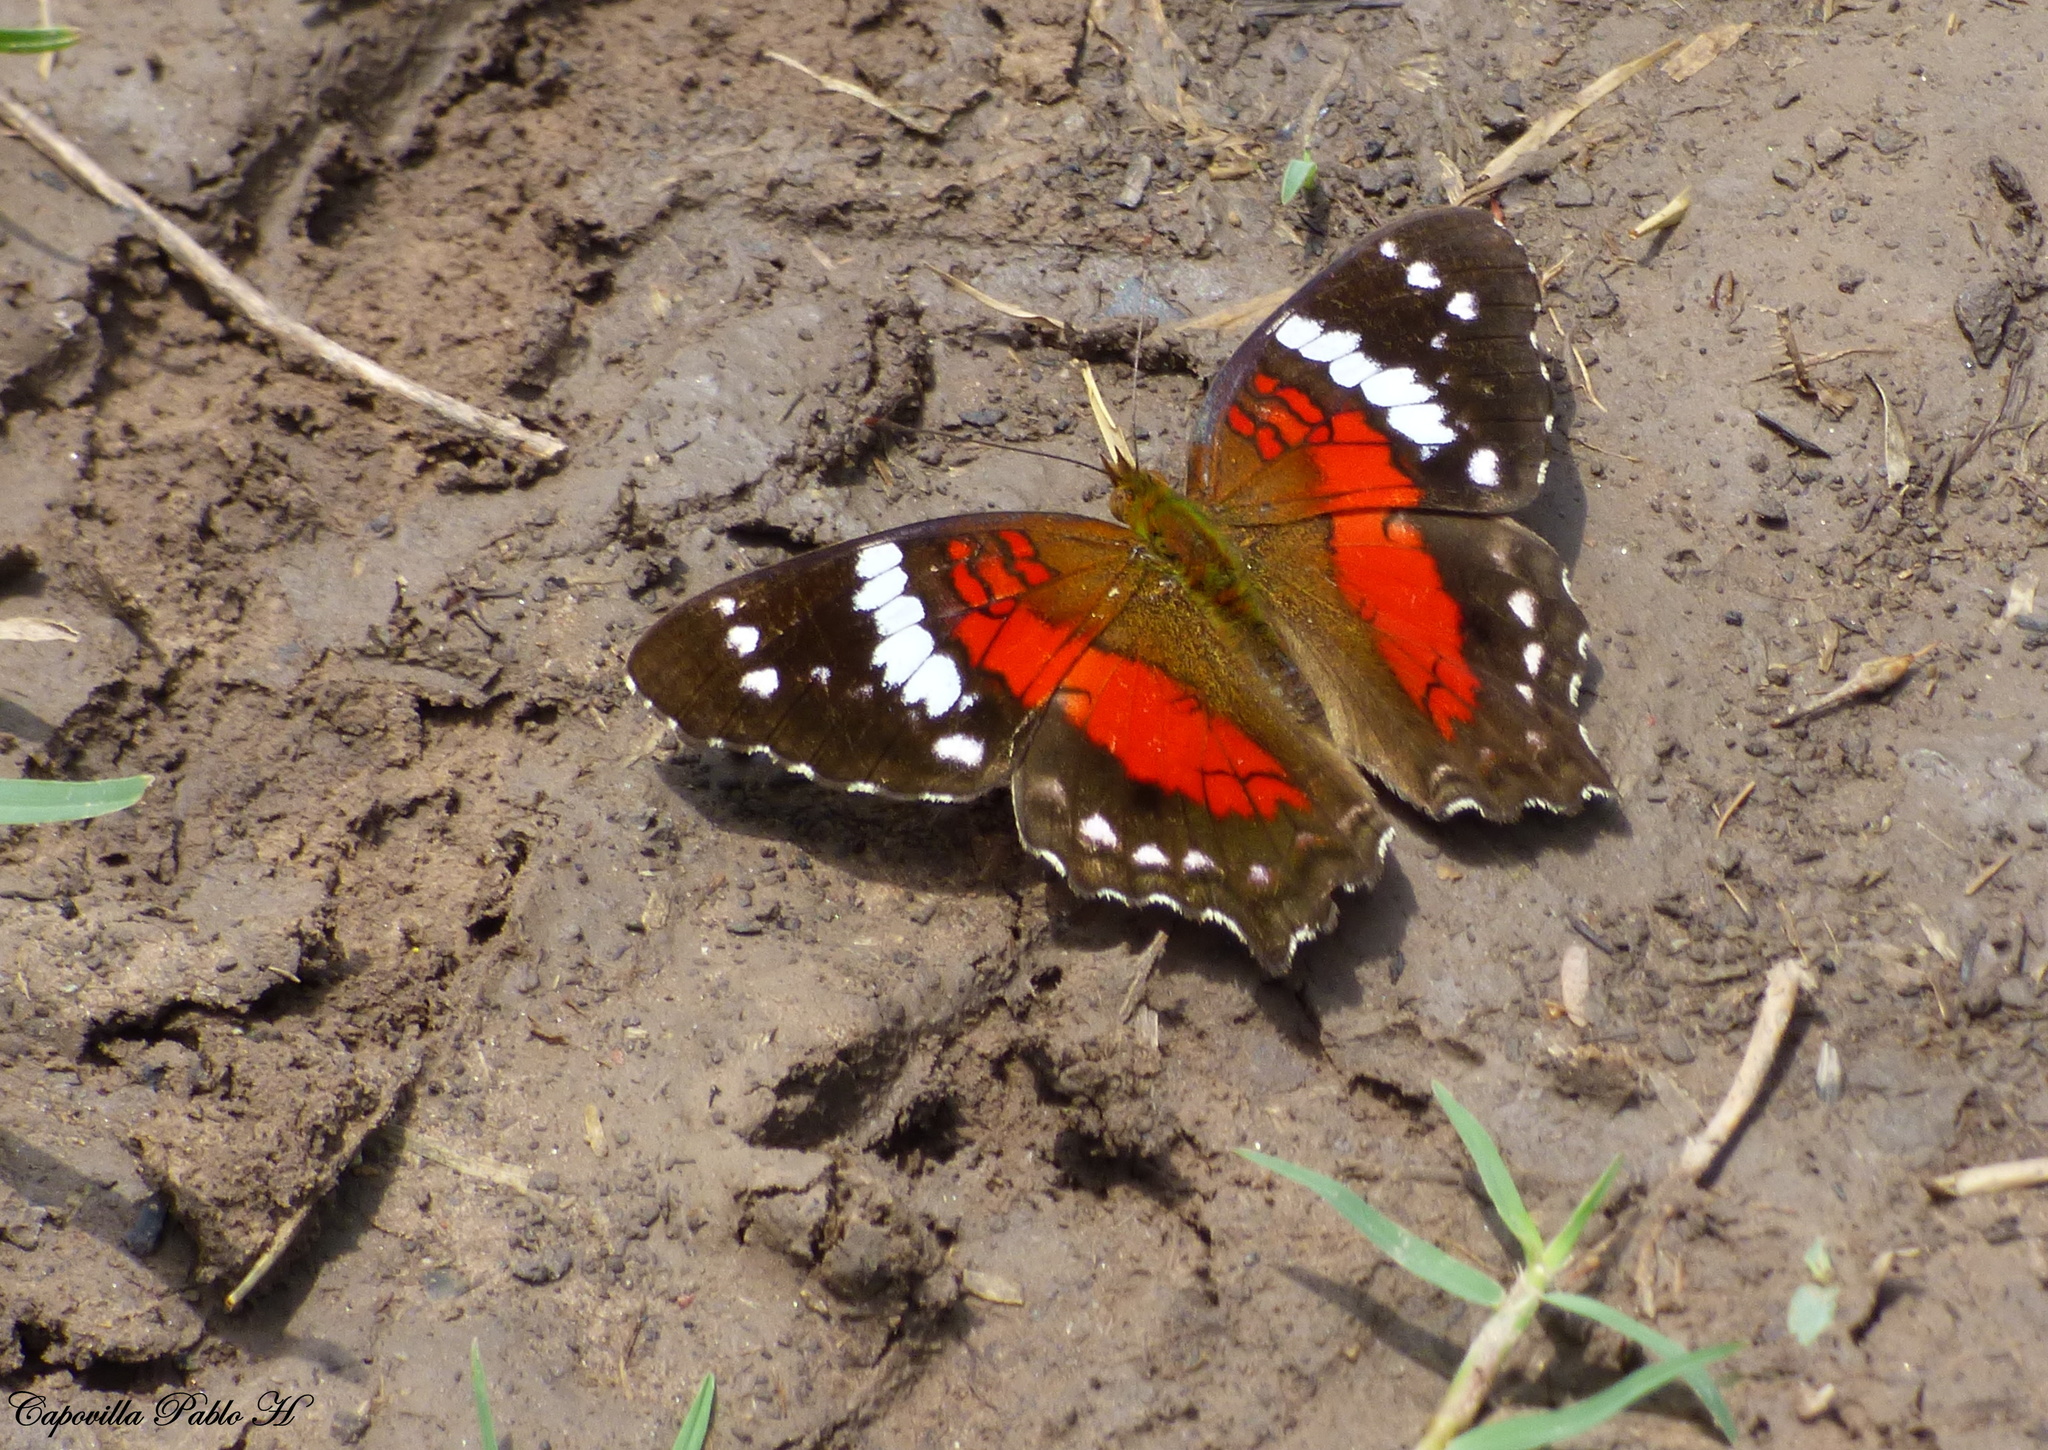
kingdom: Animalia
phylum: Arthropoda
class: Insecta
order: Lepidoptera
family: Nymphalidae
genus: Anartia
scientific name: Anartia amathea
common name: Red peacock
